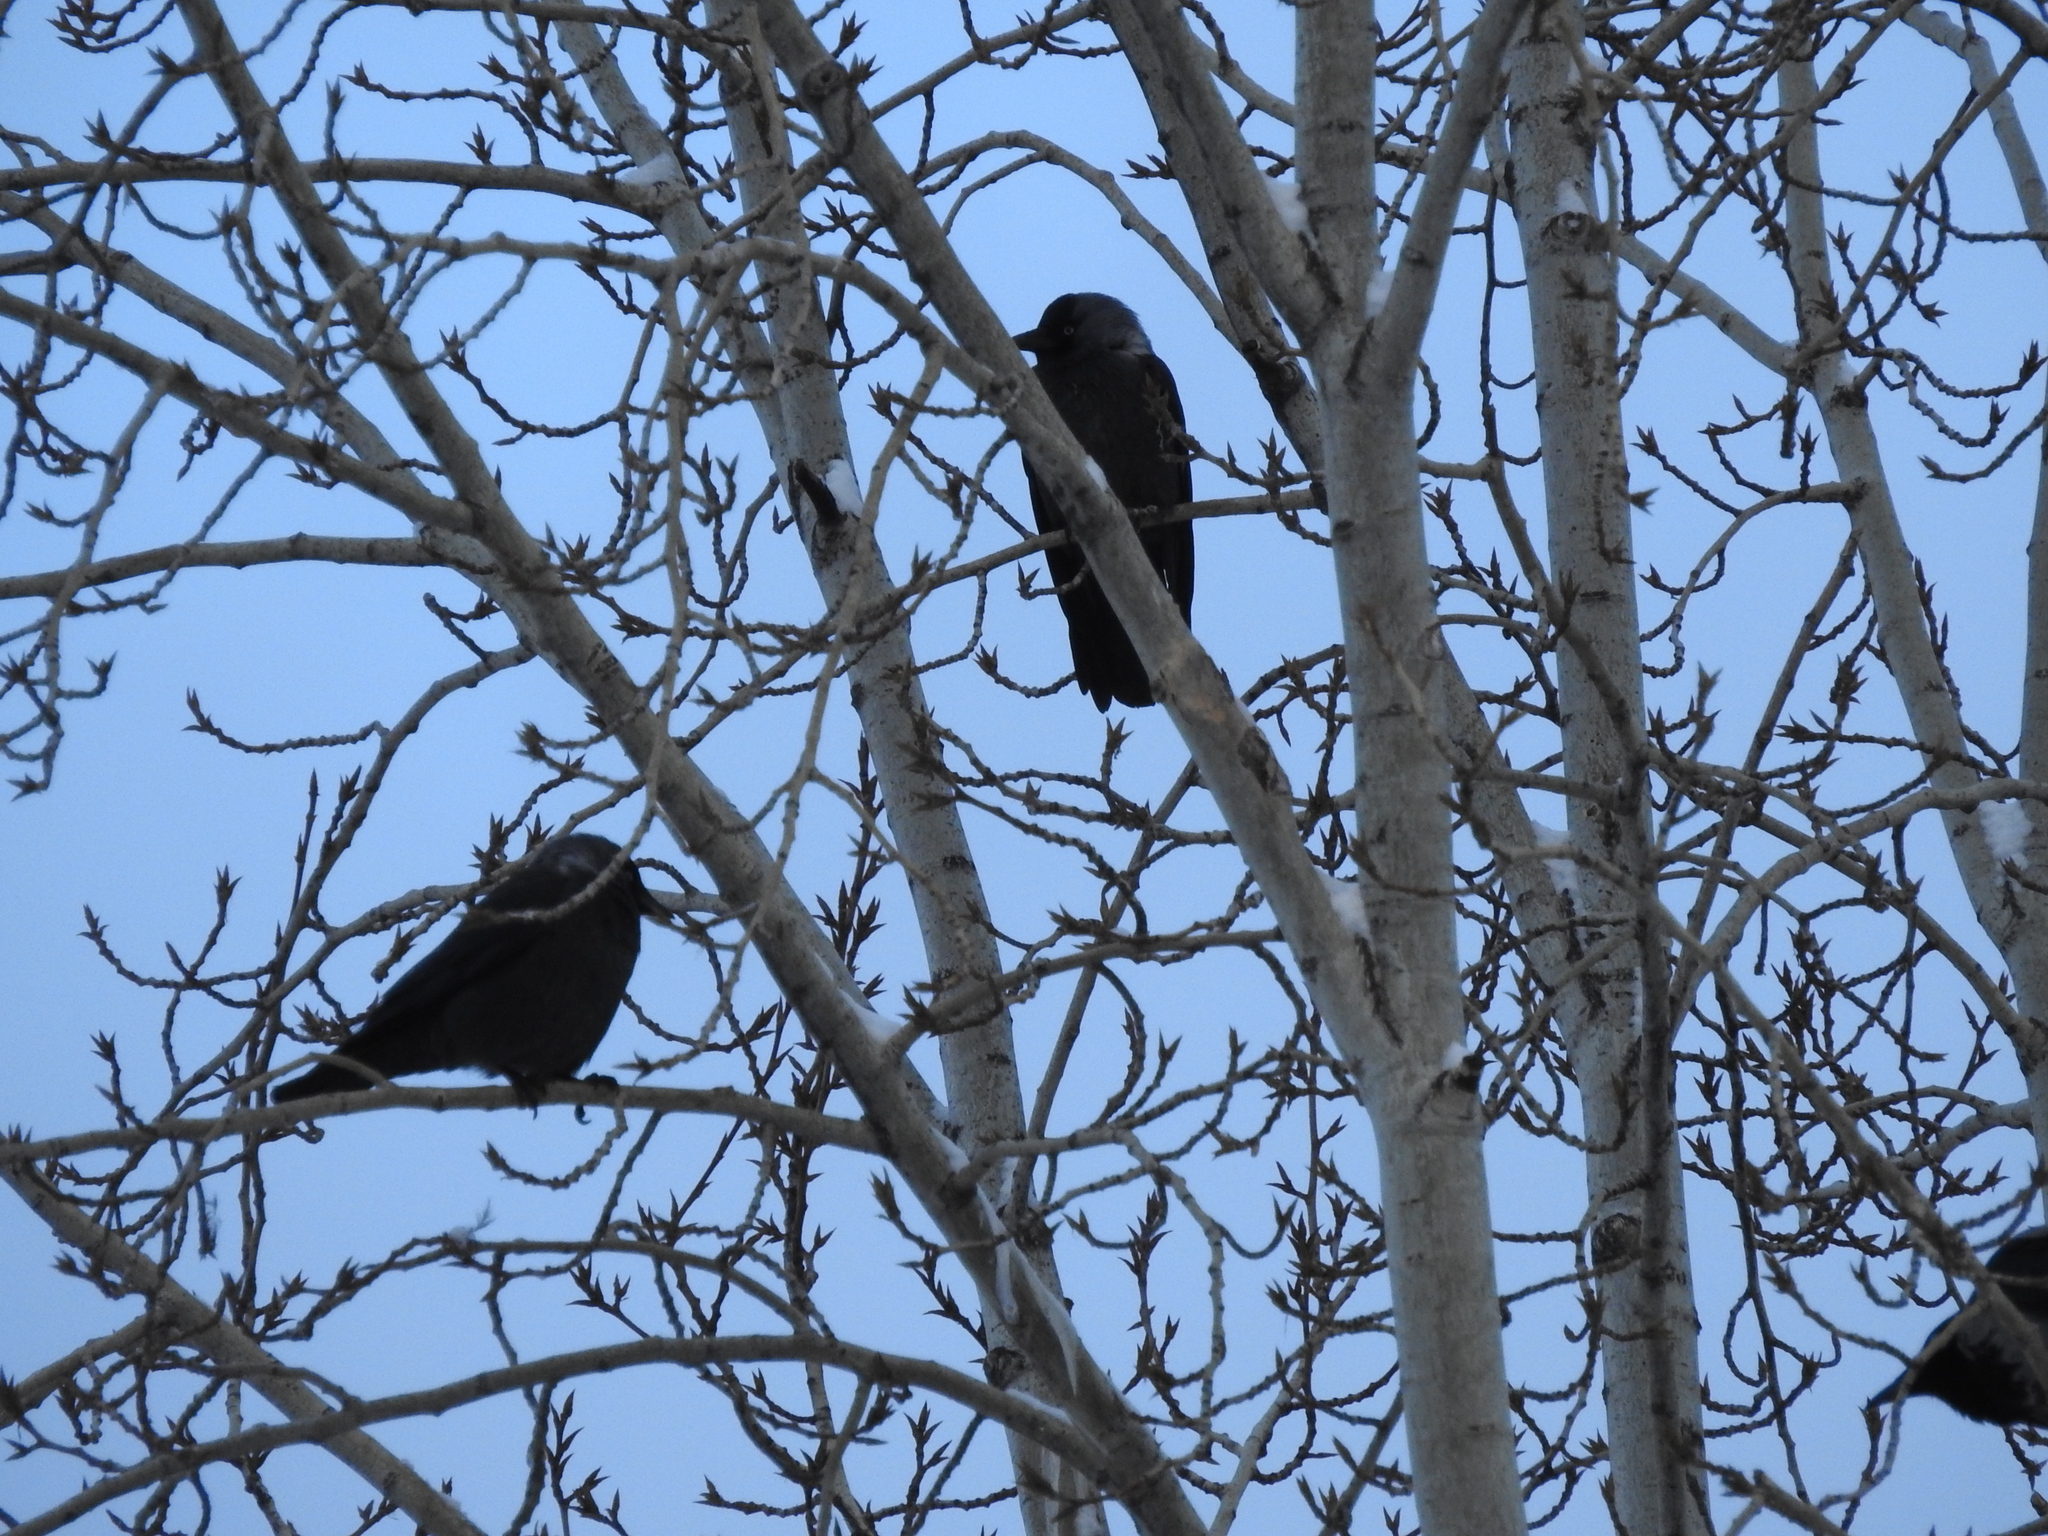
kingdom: Animalia
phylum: Chordata
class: Aves
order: Passeriformes
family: Corvidae
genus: Coloeus
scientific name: Coloeus monedula
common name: Western jackdaw
